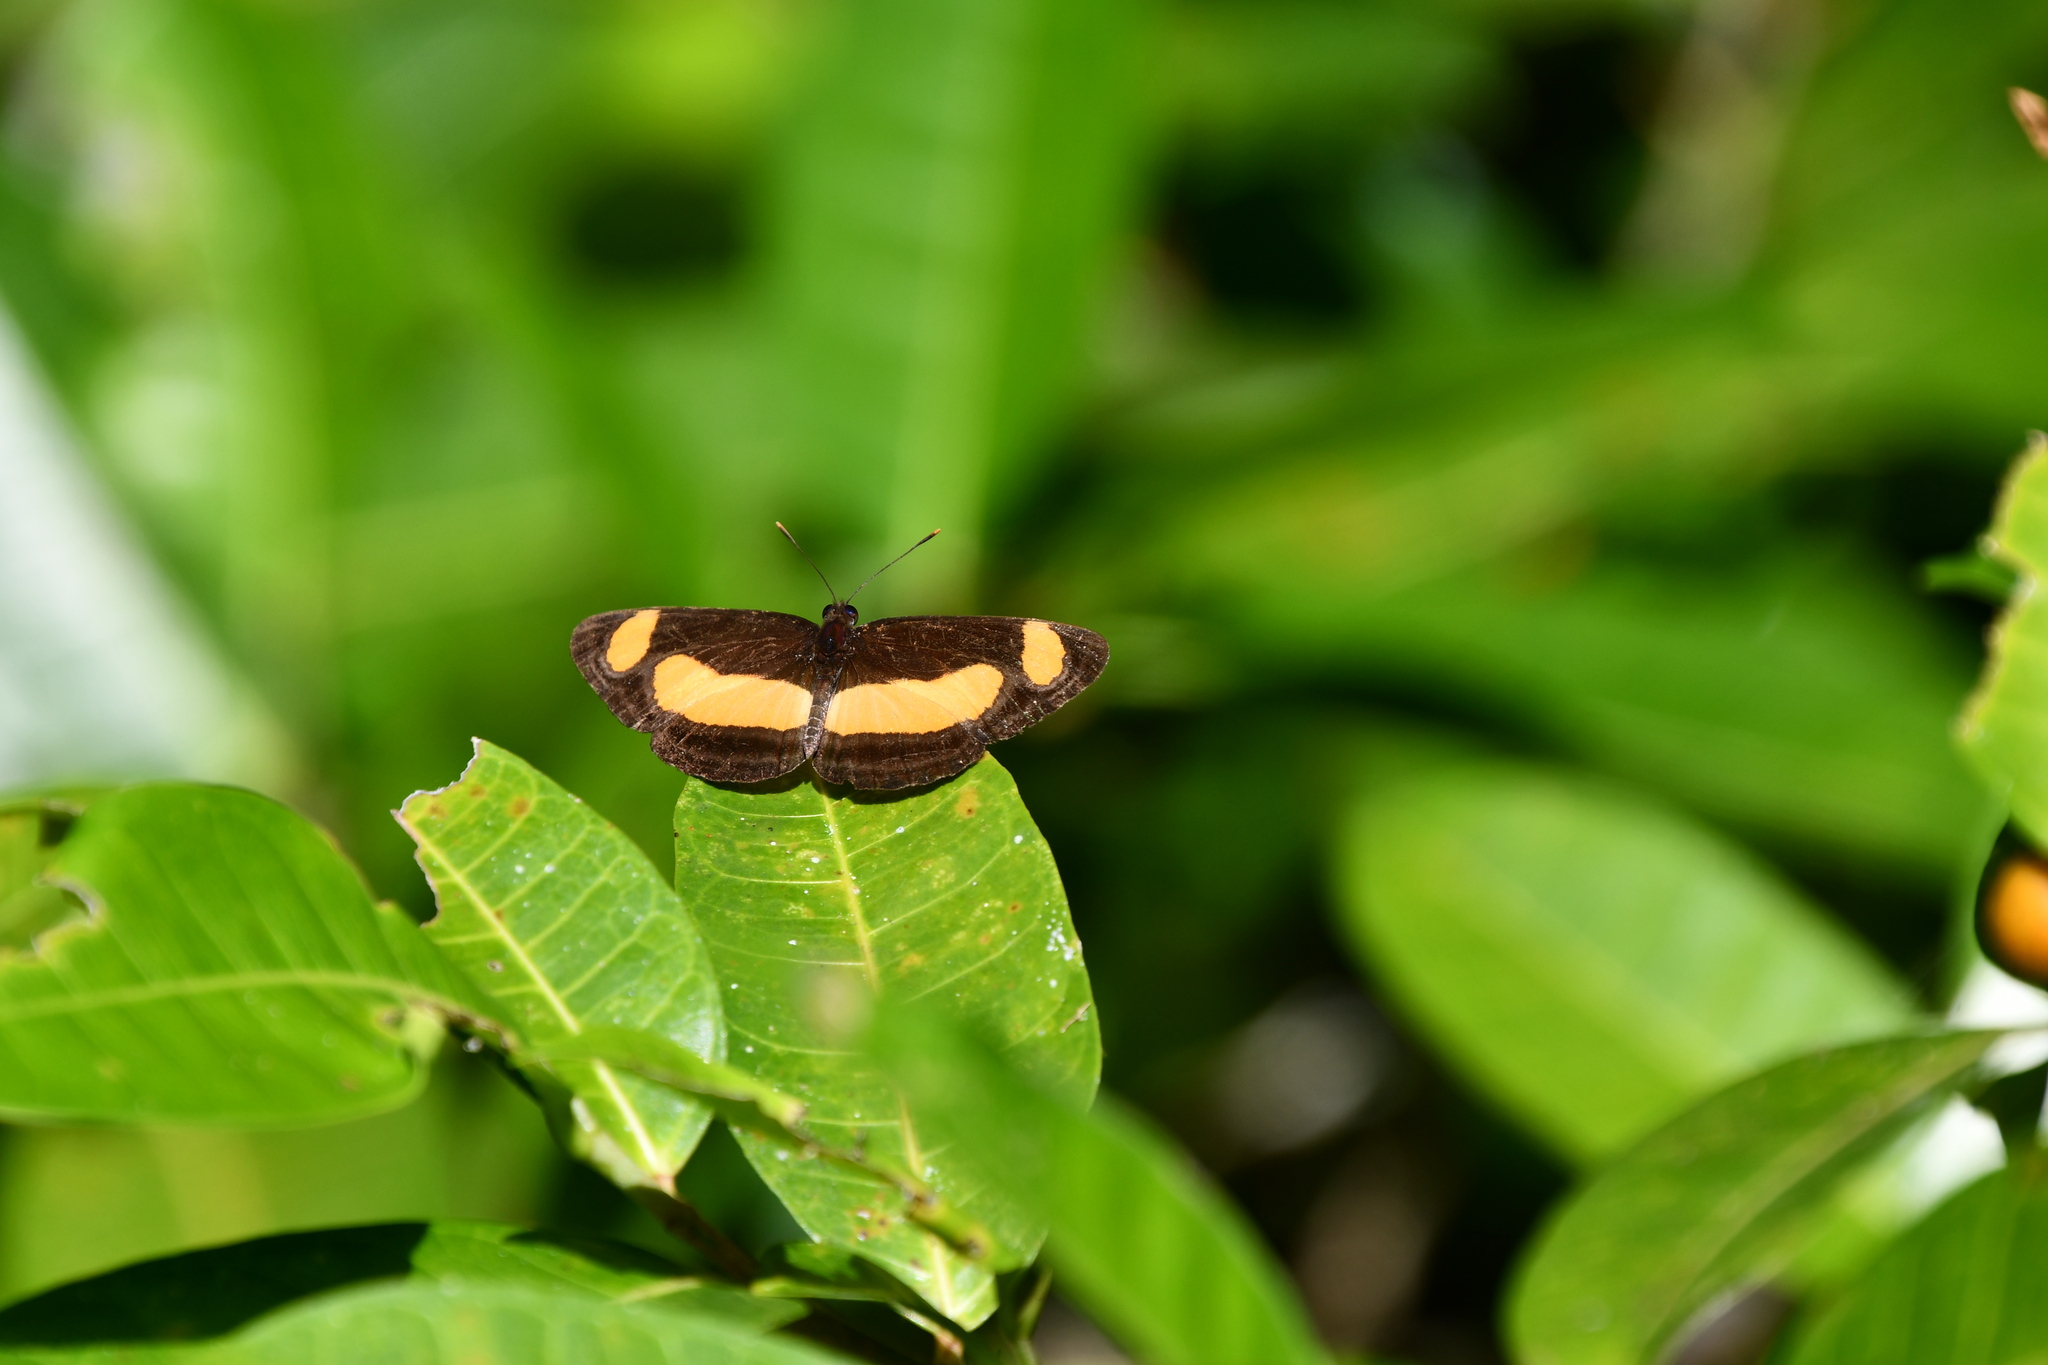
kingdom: Animalia
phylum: Arthropoda
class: Insecta
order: Lepidoptera
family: Nymphalidae
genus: Pantoporia
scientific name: Pantoporia consimilis
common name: Orange plane
